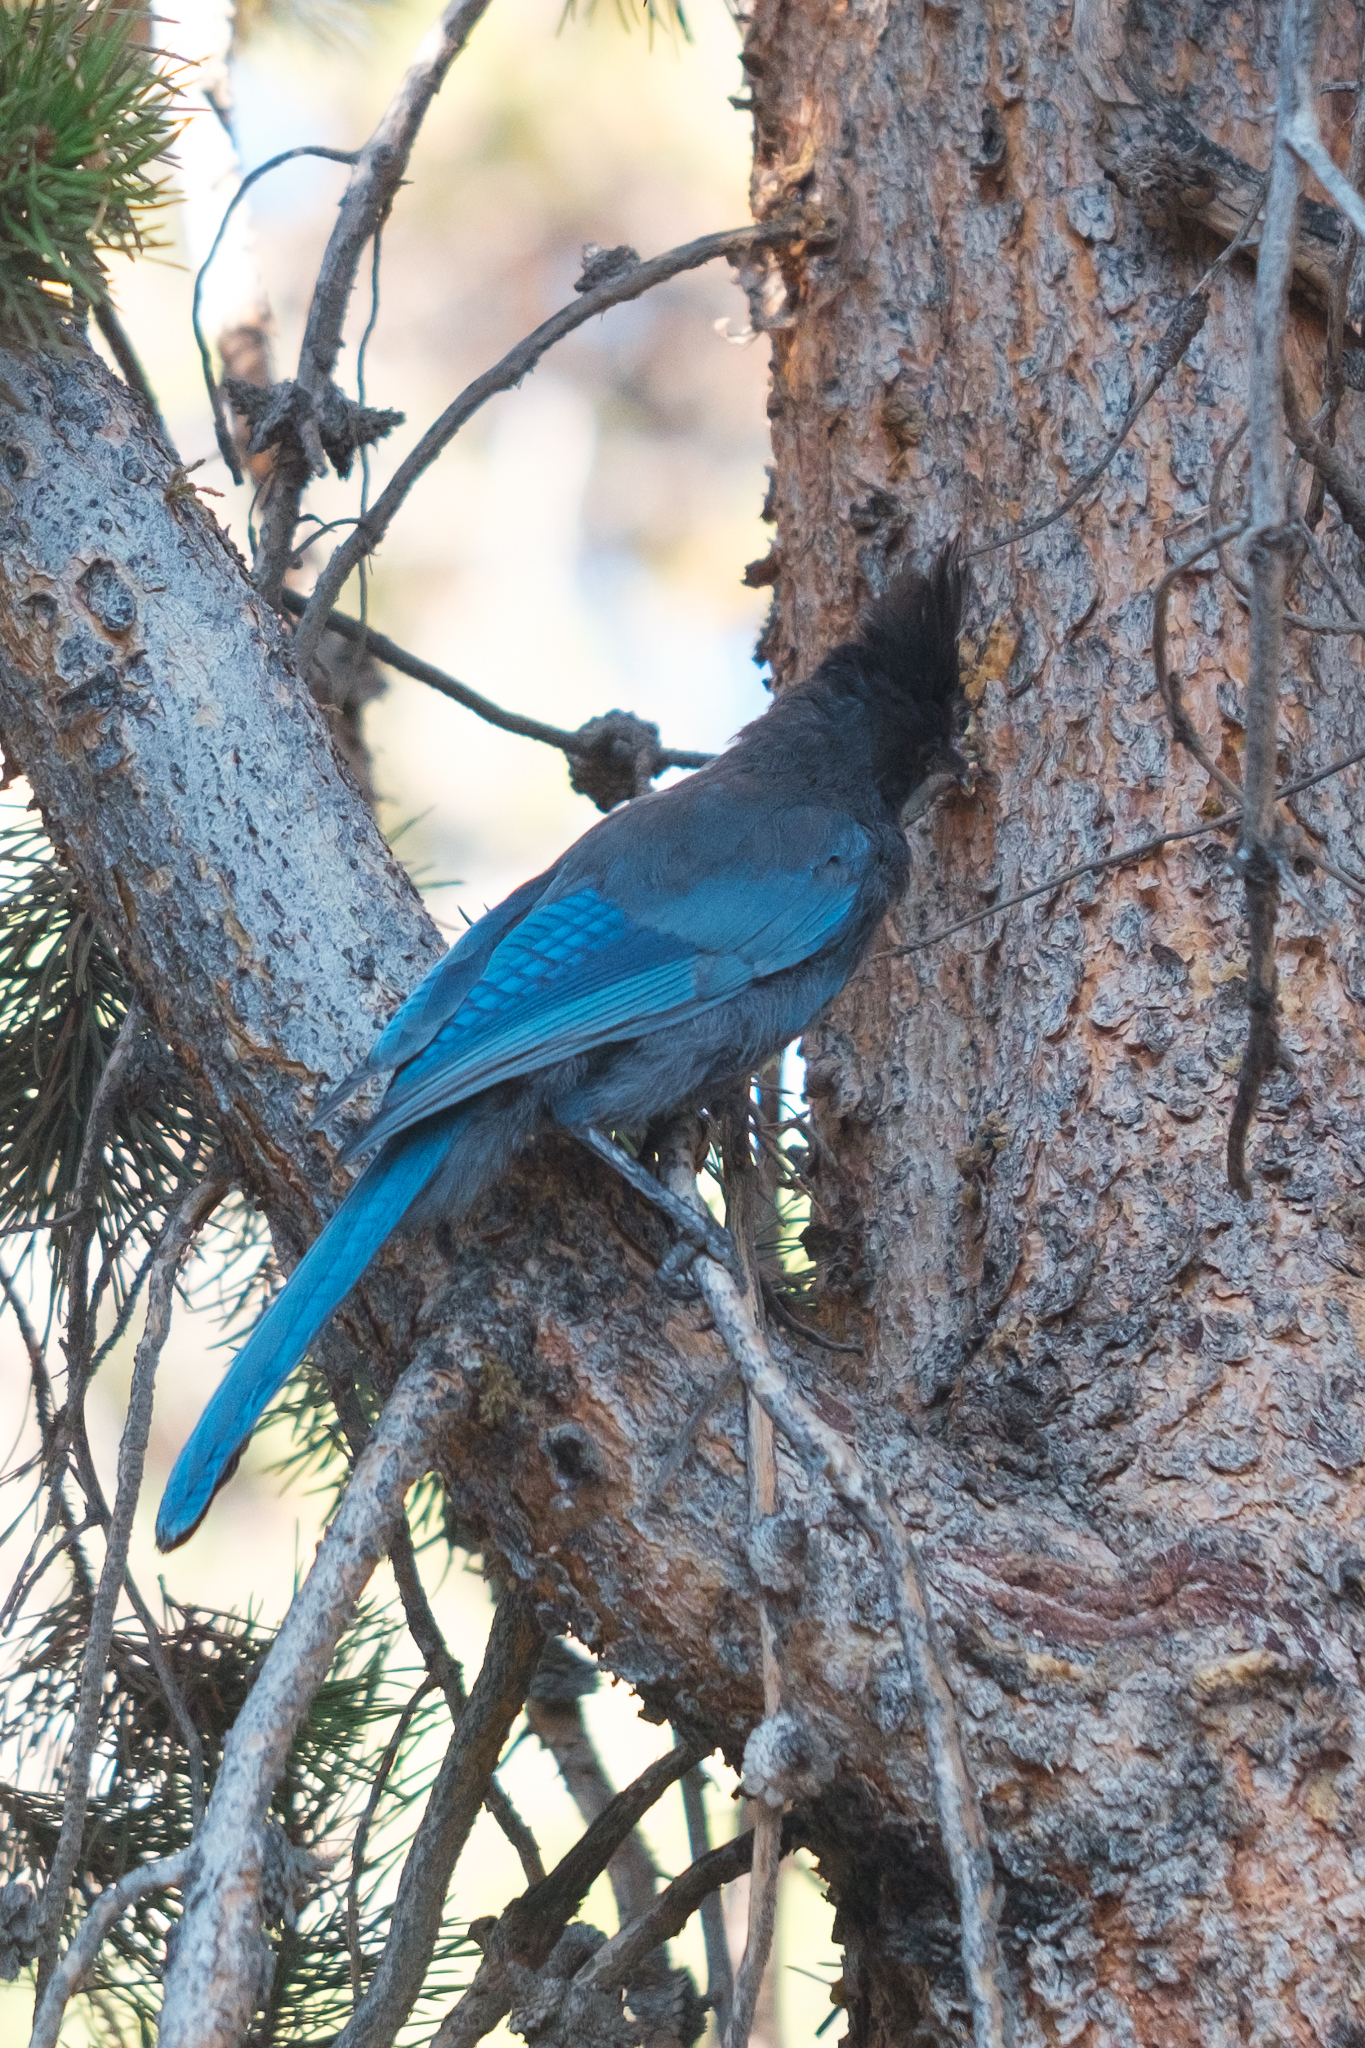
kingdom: Animalia
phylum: Chordata
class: Aves
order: Passeriformes
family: Corvidae
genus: Cyanocitta
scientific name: Cyanocitta stelleri
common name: Steller's jay
